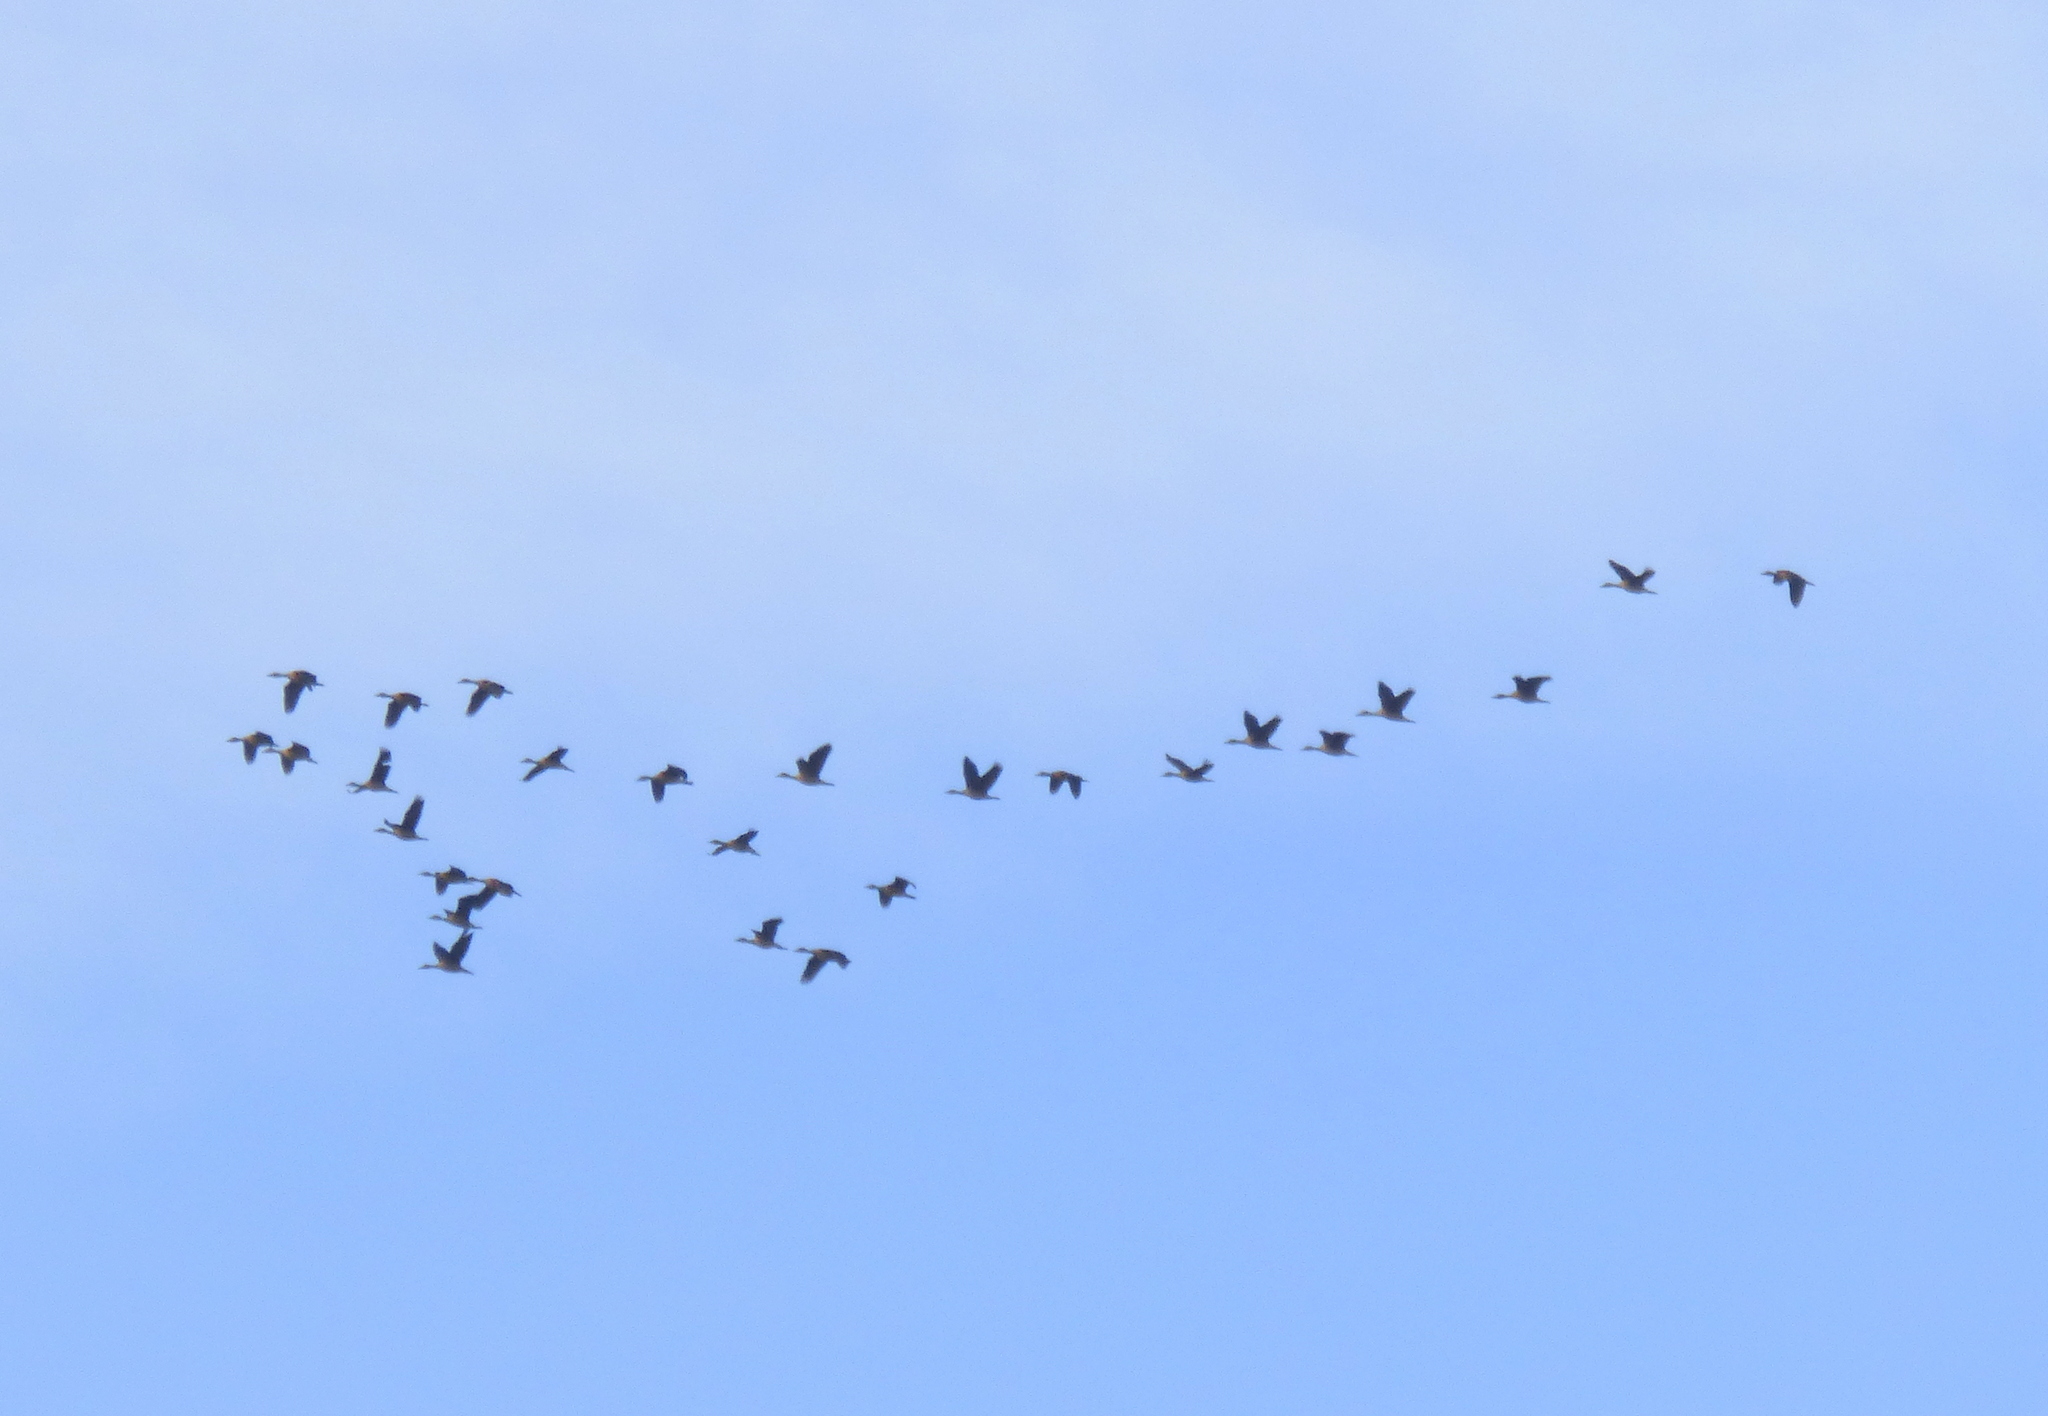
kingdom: Animalia
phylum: Chordata
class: Aves
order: Anseriformes
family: Anatidae
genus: Dendrocygna
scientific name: Dendrocygna bicolor
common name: Fulvous whistling duck
